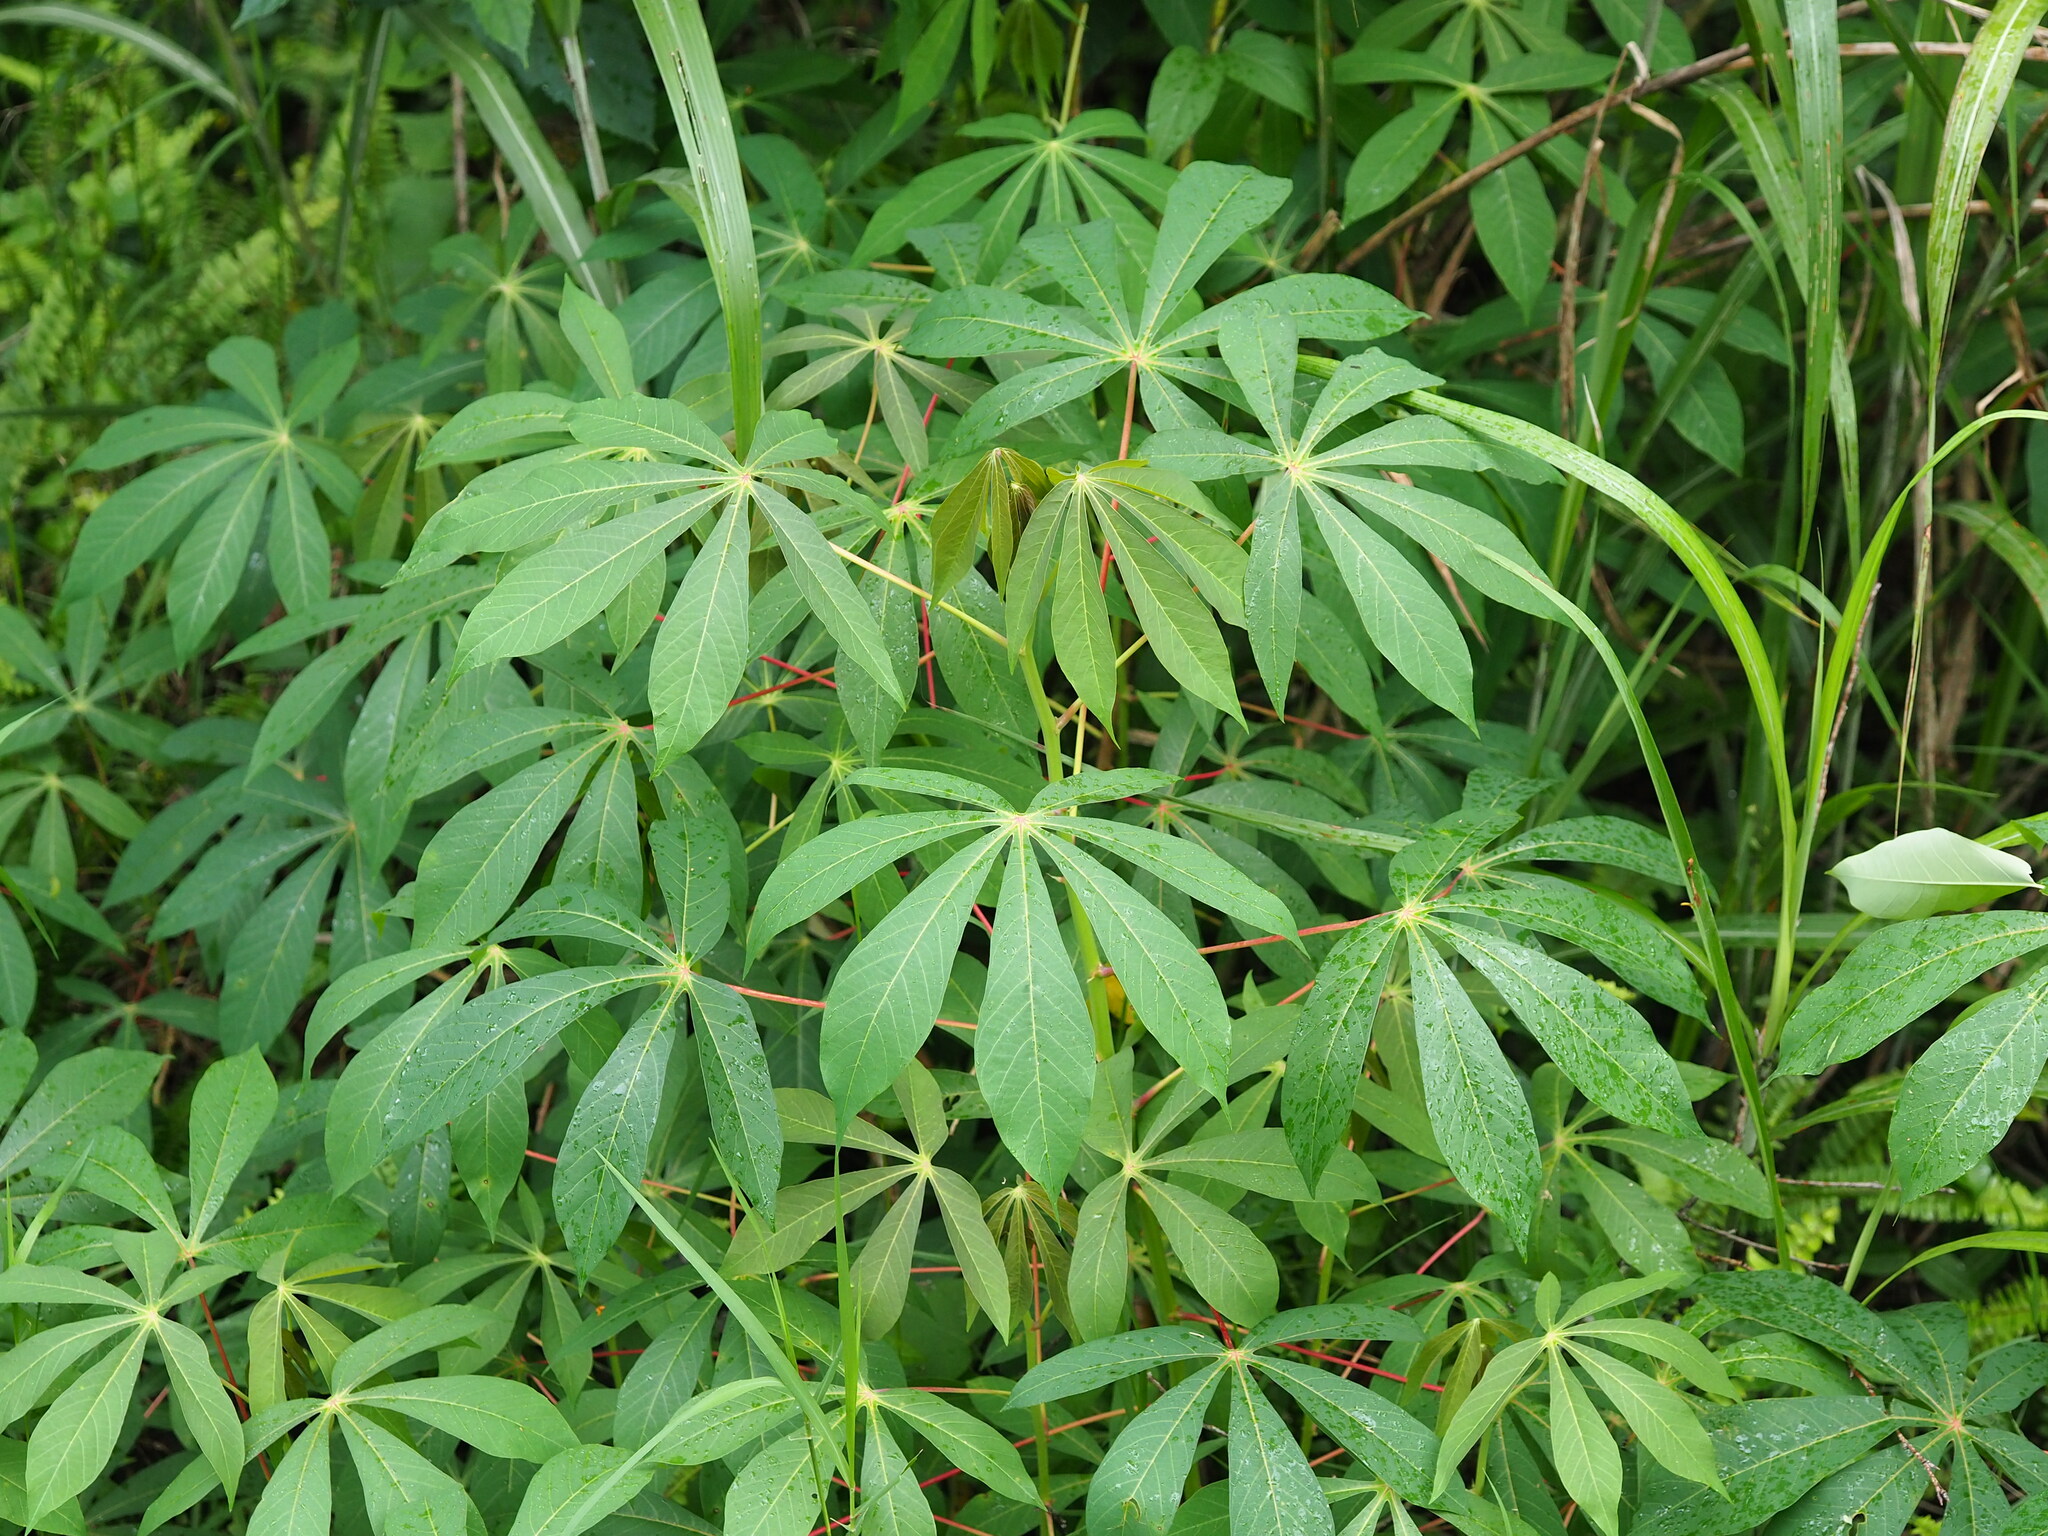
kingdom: Plantae
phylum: Tracheophyta
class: Magnoliopsida
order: Malpighiales
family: Euphorbiaceae
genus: Manihot
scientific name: Manihot esculenta
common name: Cassava
